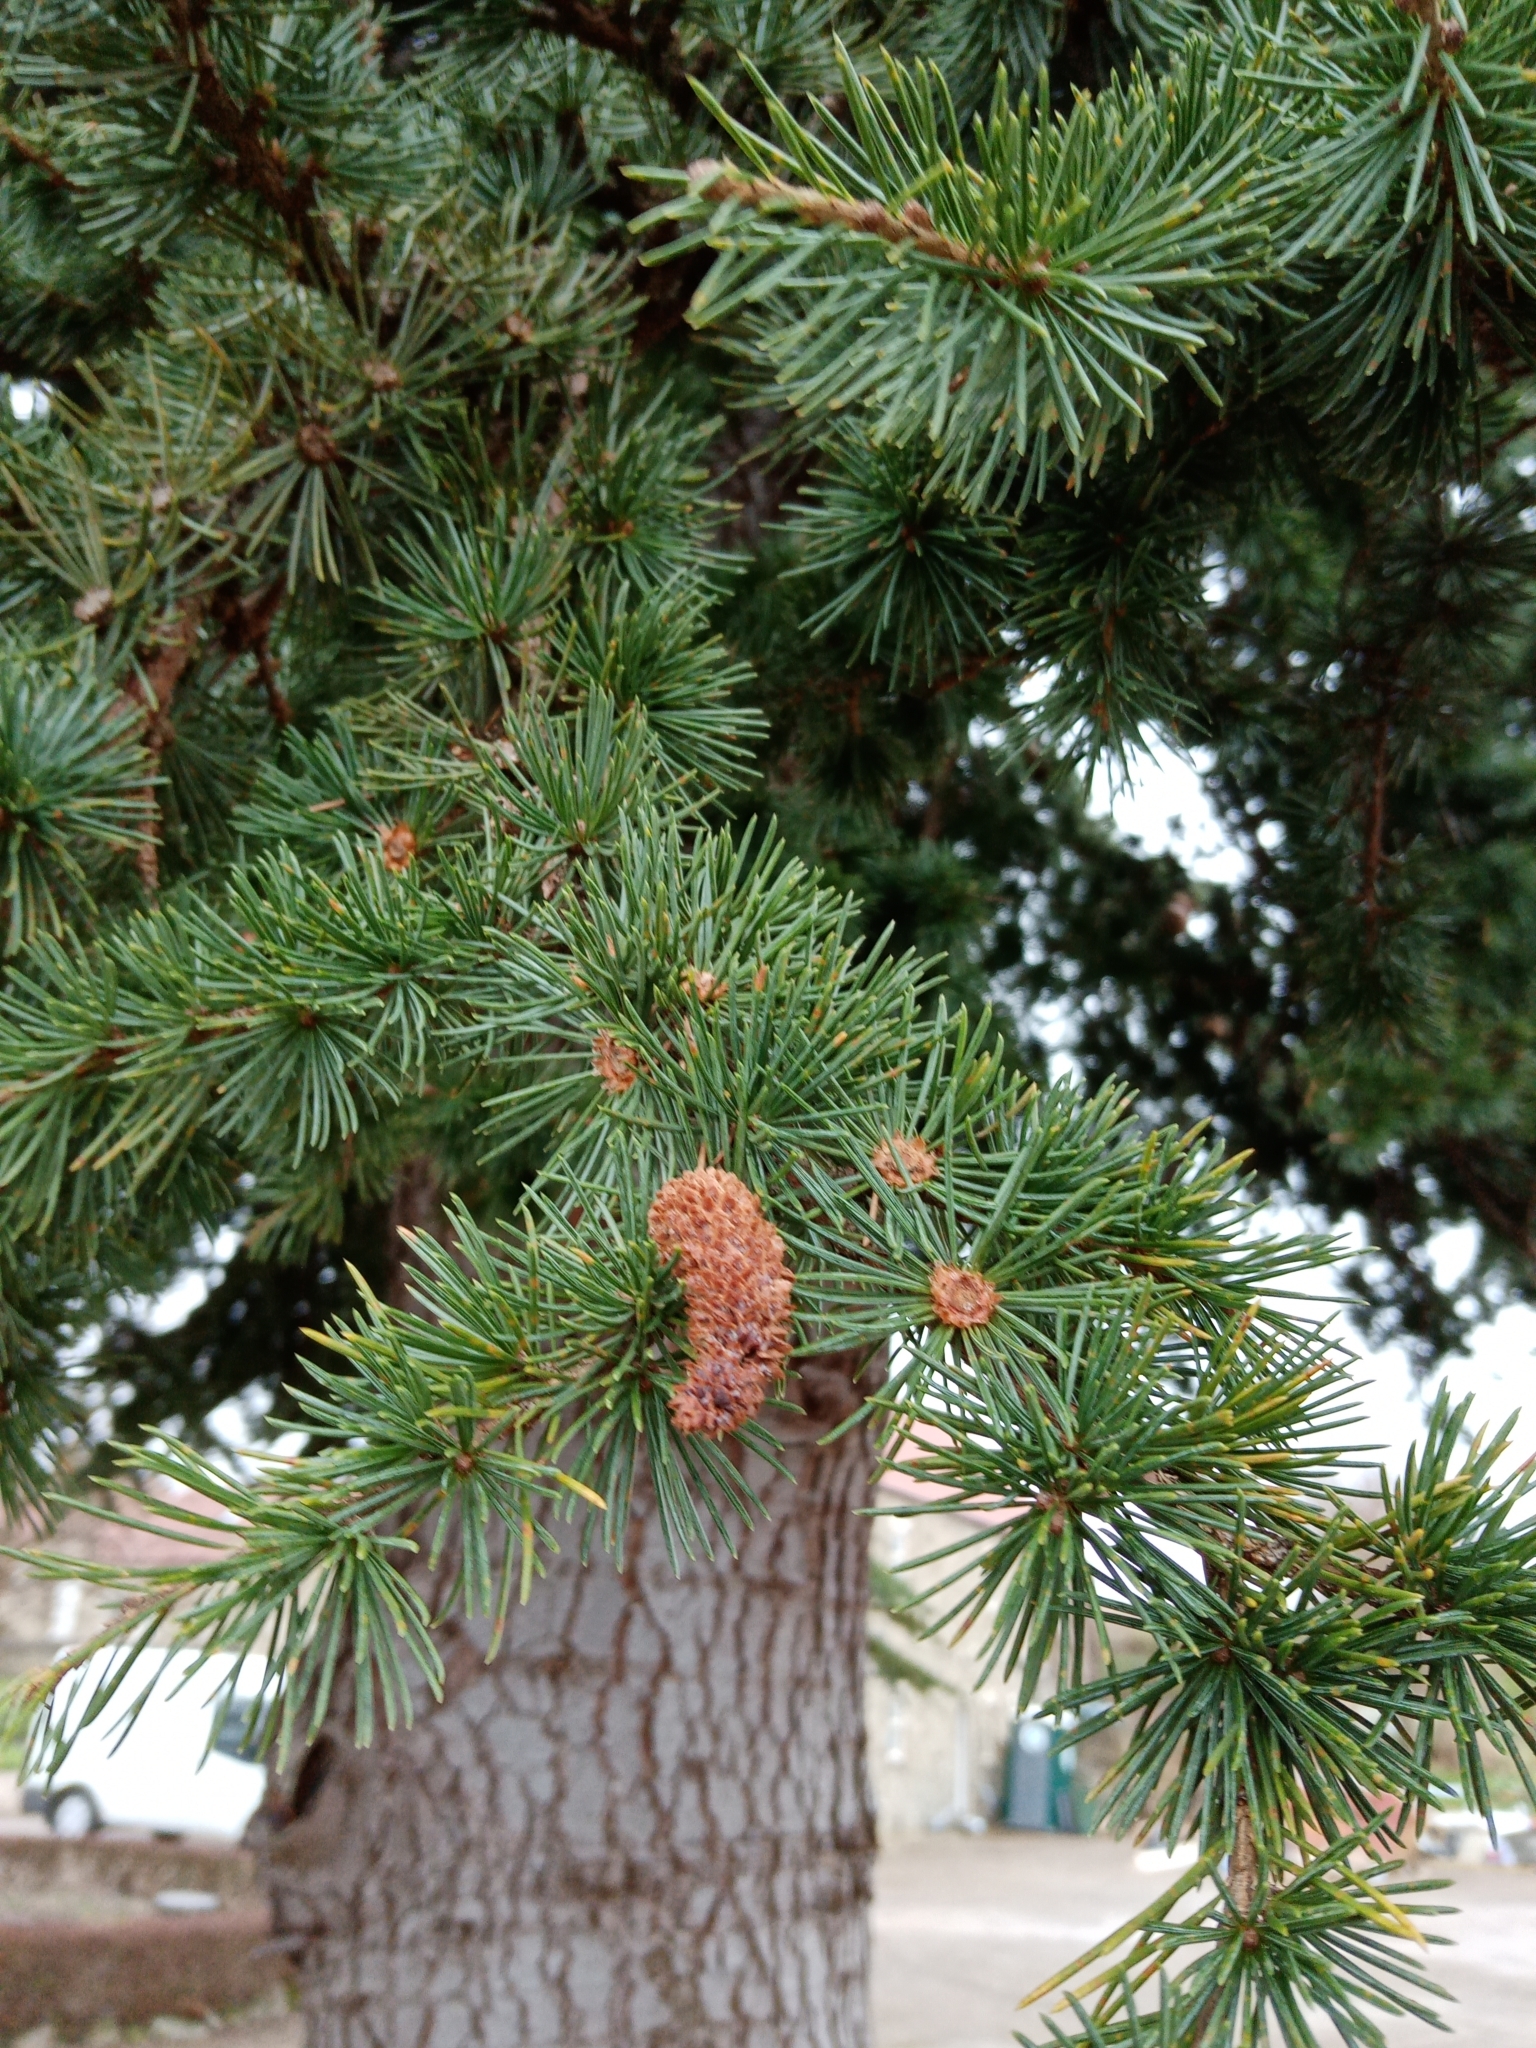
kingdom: Plantae
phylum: Tracheophyta
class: Pinopsida
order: Pinales
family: Pinaceae
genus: Cedrus
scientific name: Cedrus libani
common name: Cedar-of-lebanon
